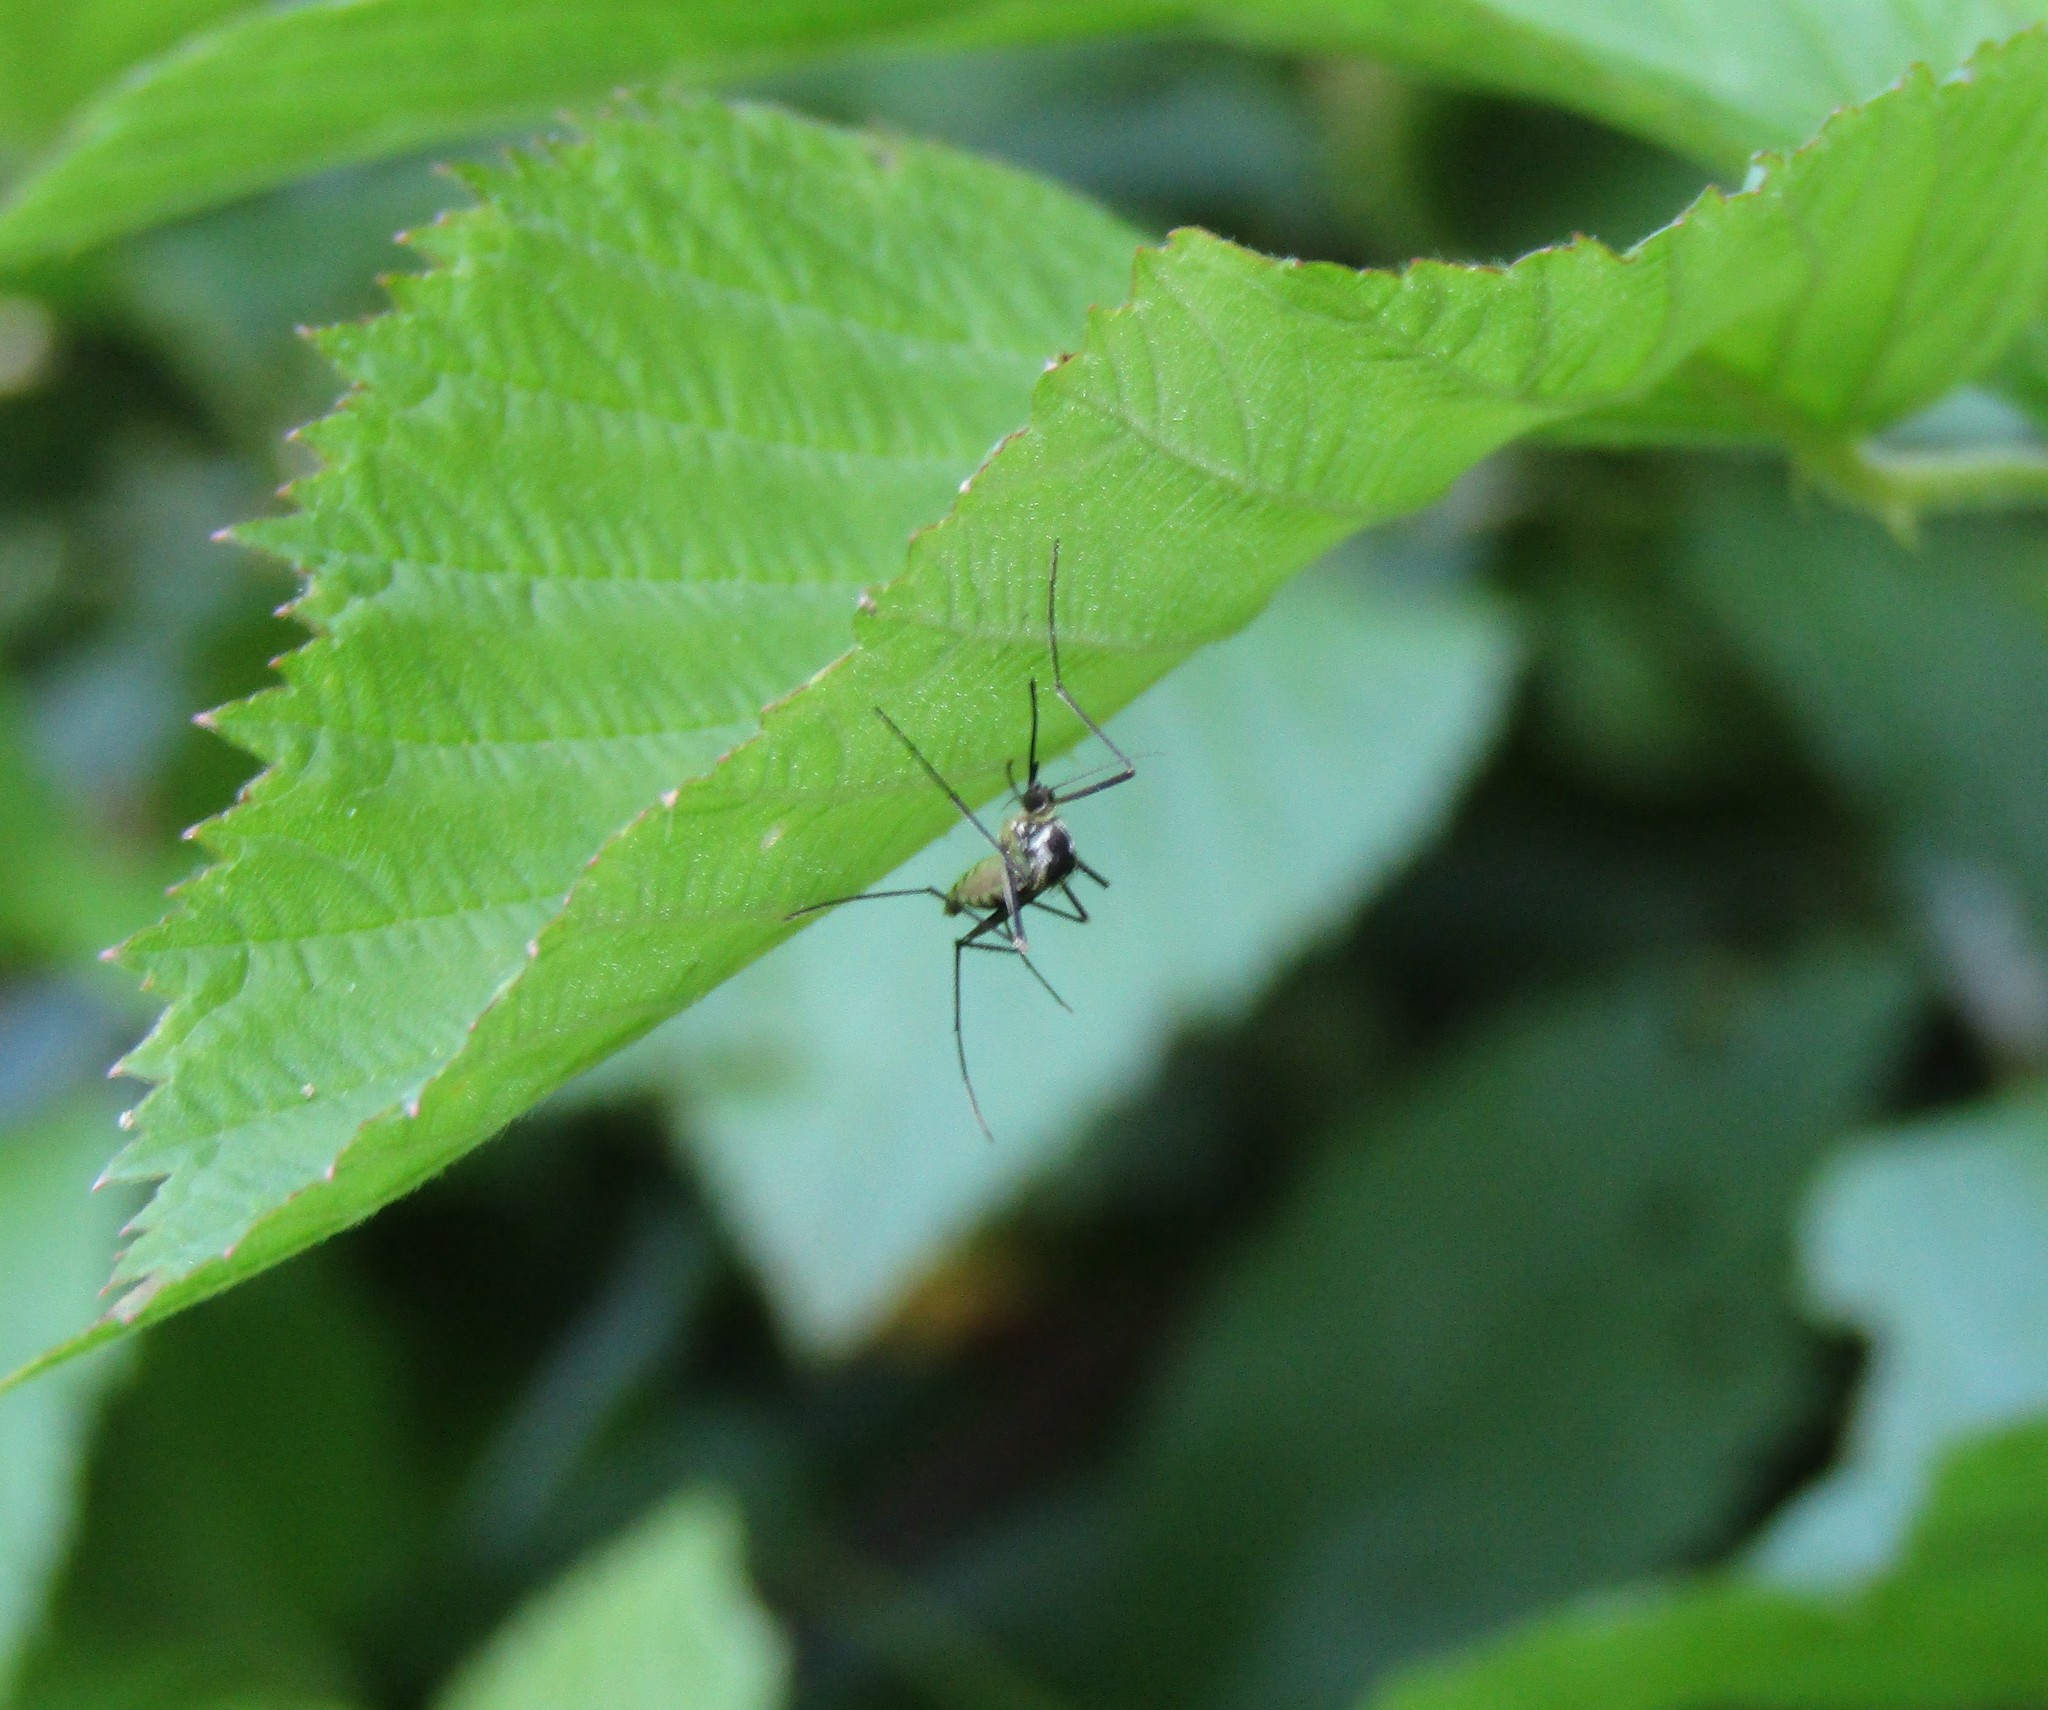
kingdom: Animalia
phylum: Arthropoda
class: Insecta
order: Diptera
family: Culicidae
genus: Aedes
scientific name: Aedes triseriatus
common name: Eastern treehole mosquito
